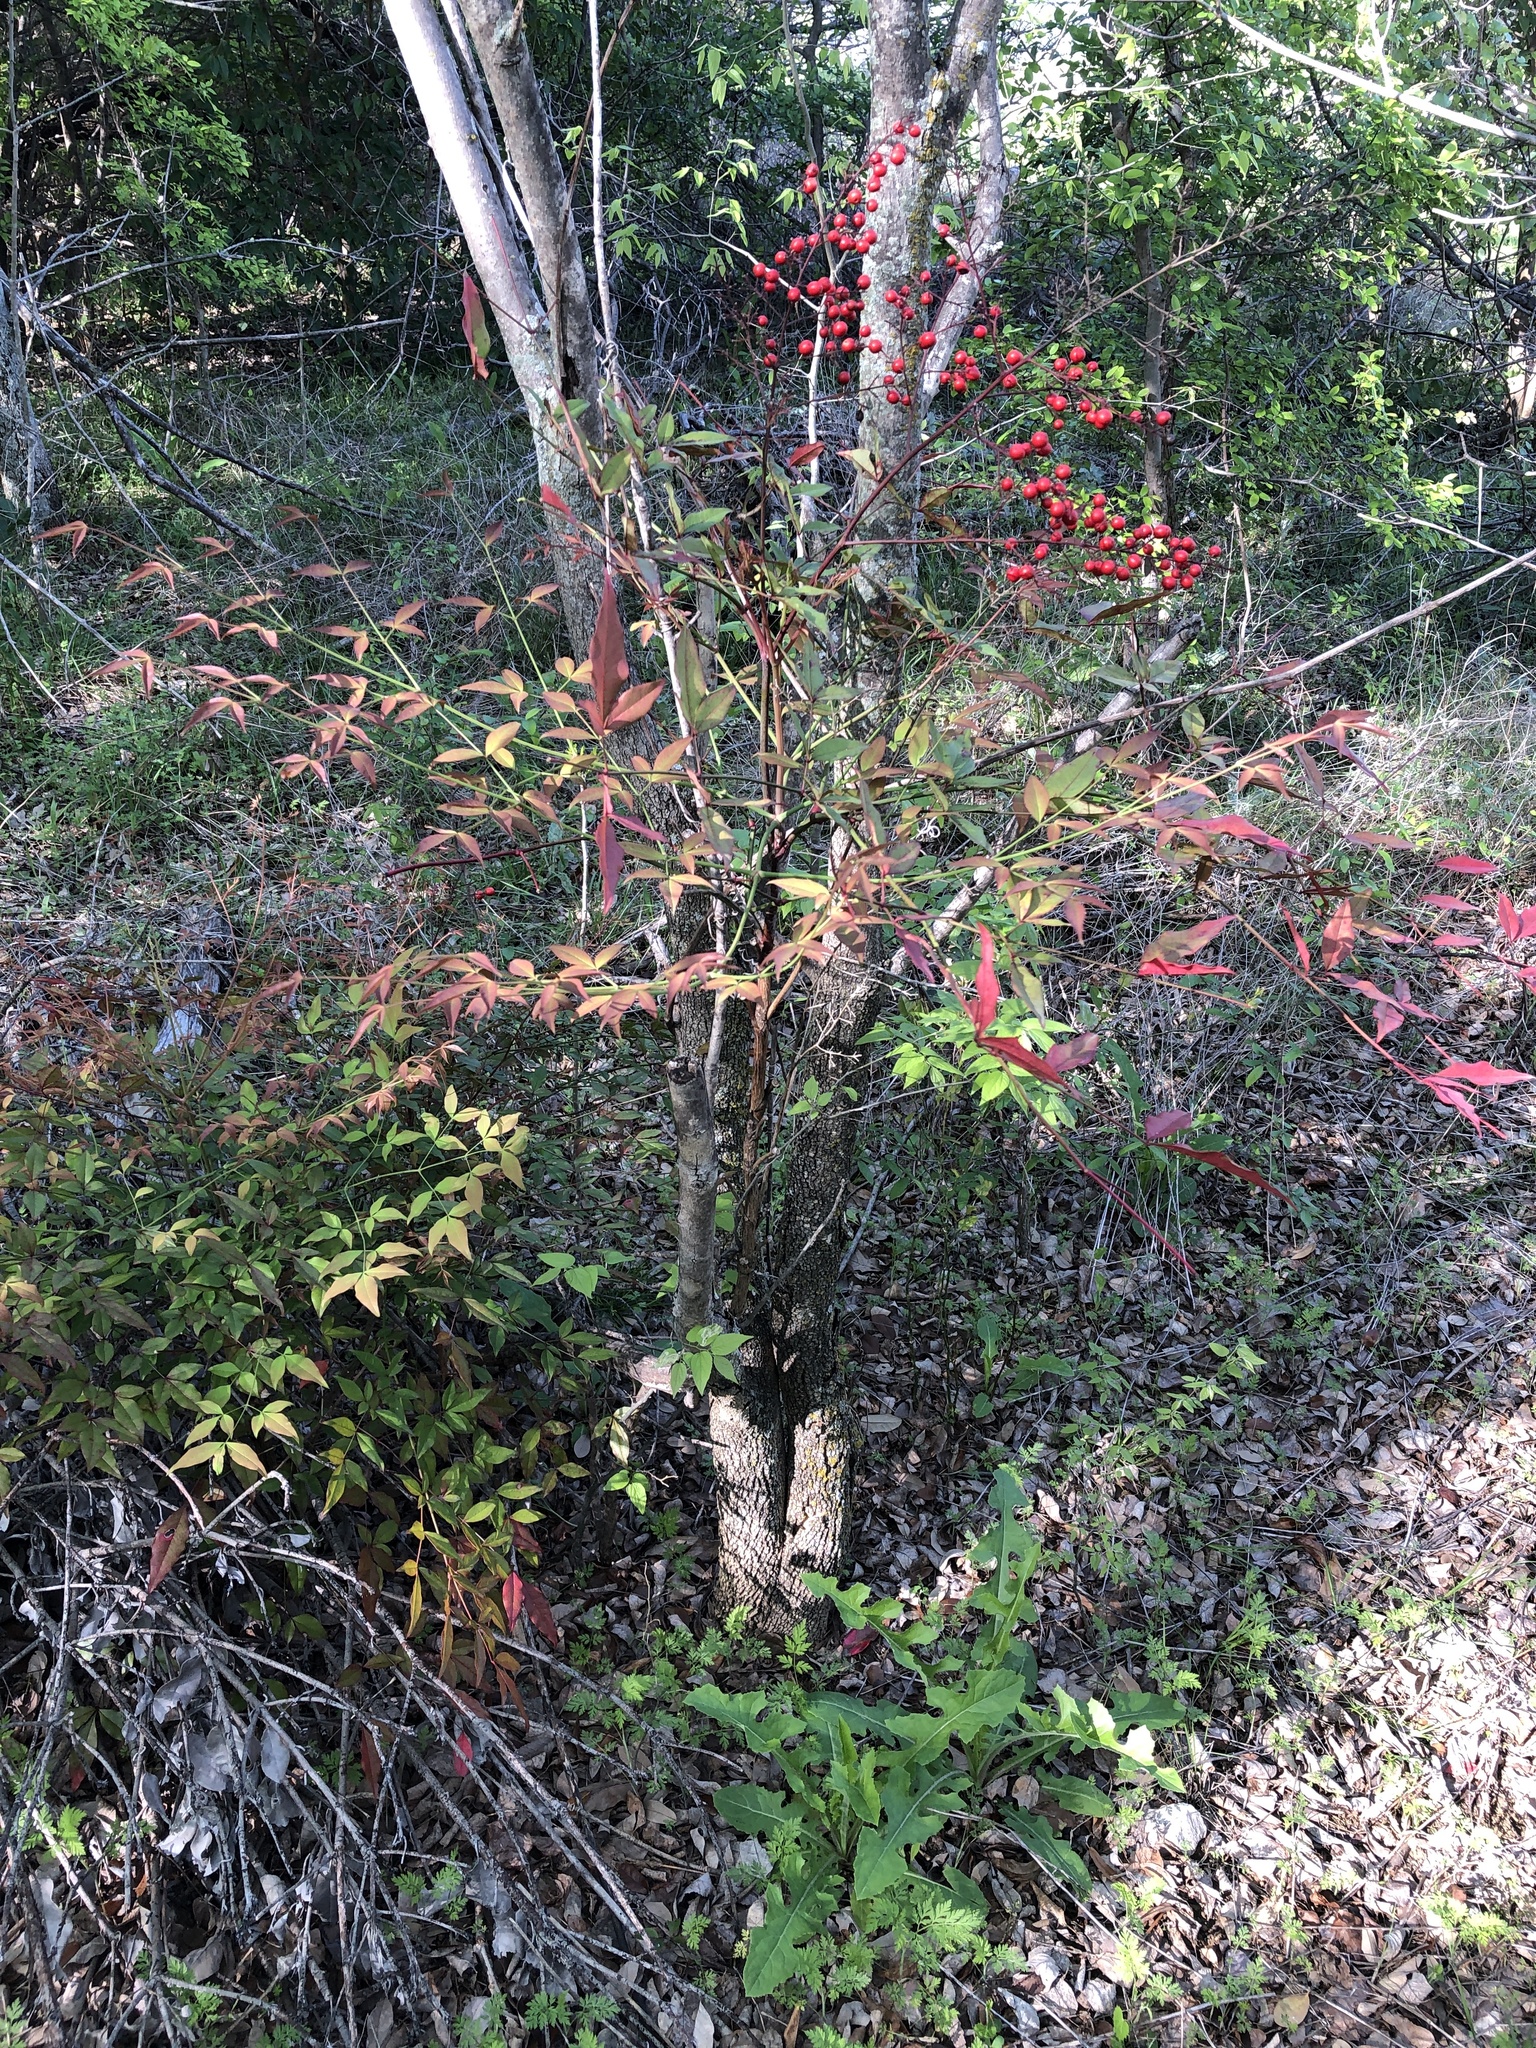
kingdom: Plantae
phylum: Tracheophyta
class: Magnoliopsida
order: Ranunculales
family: Berberidaceae
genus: Nandina
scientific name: Nandina domestica
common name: Sacred bamboo
